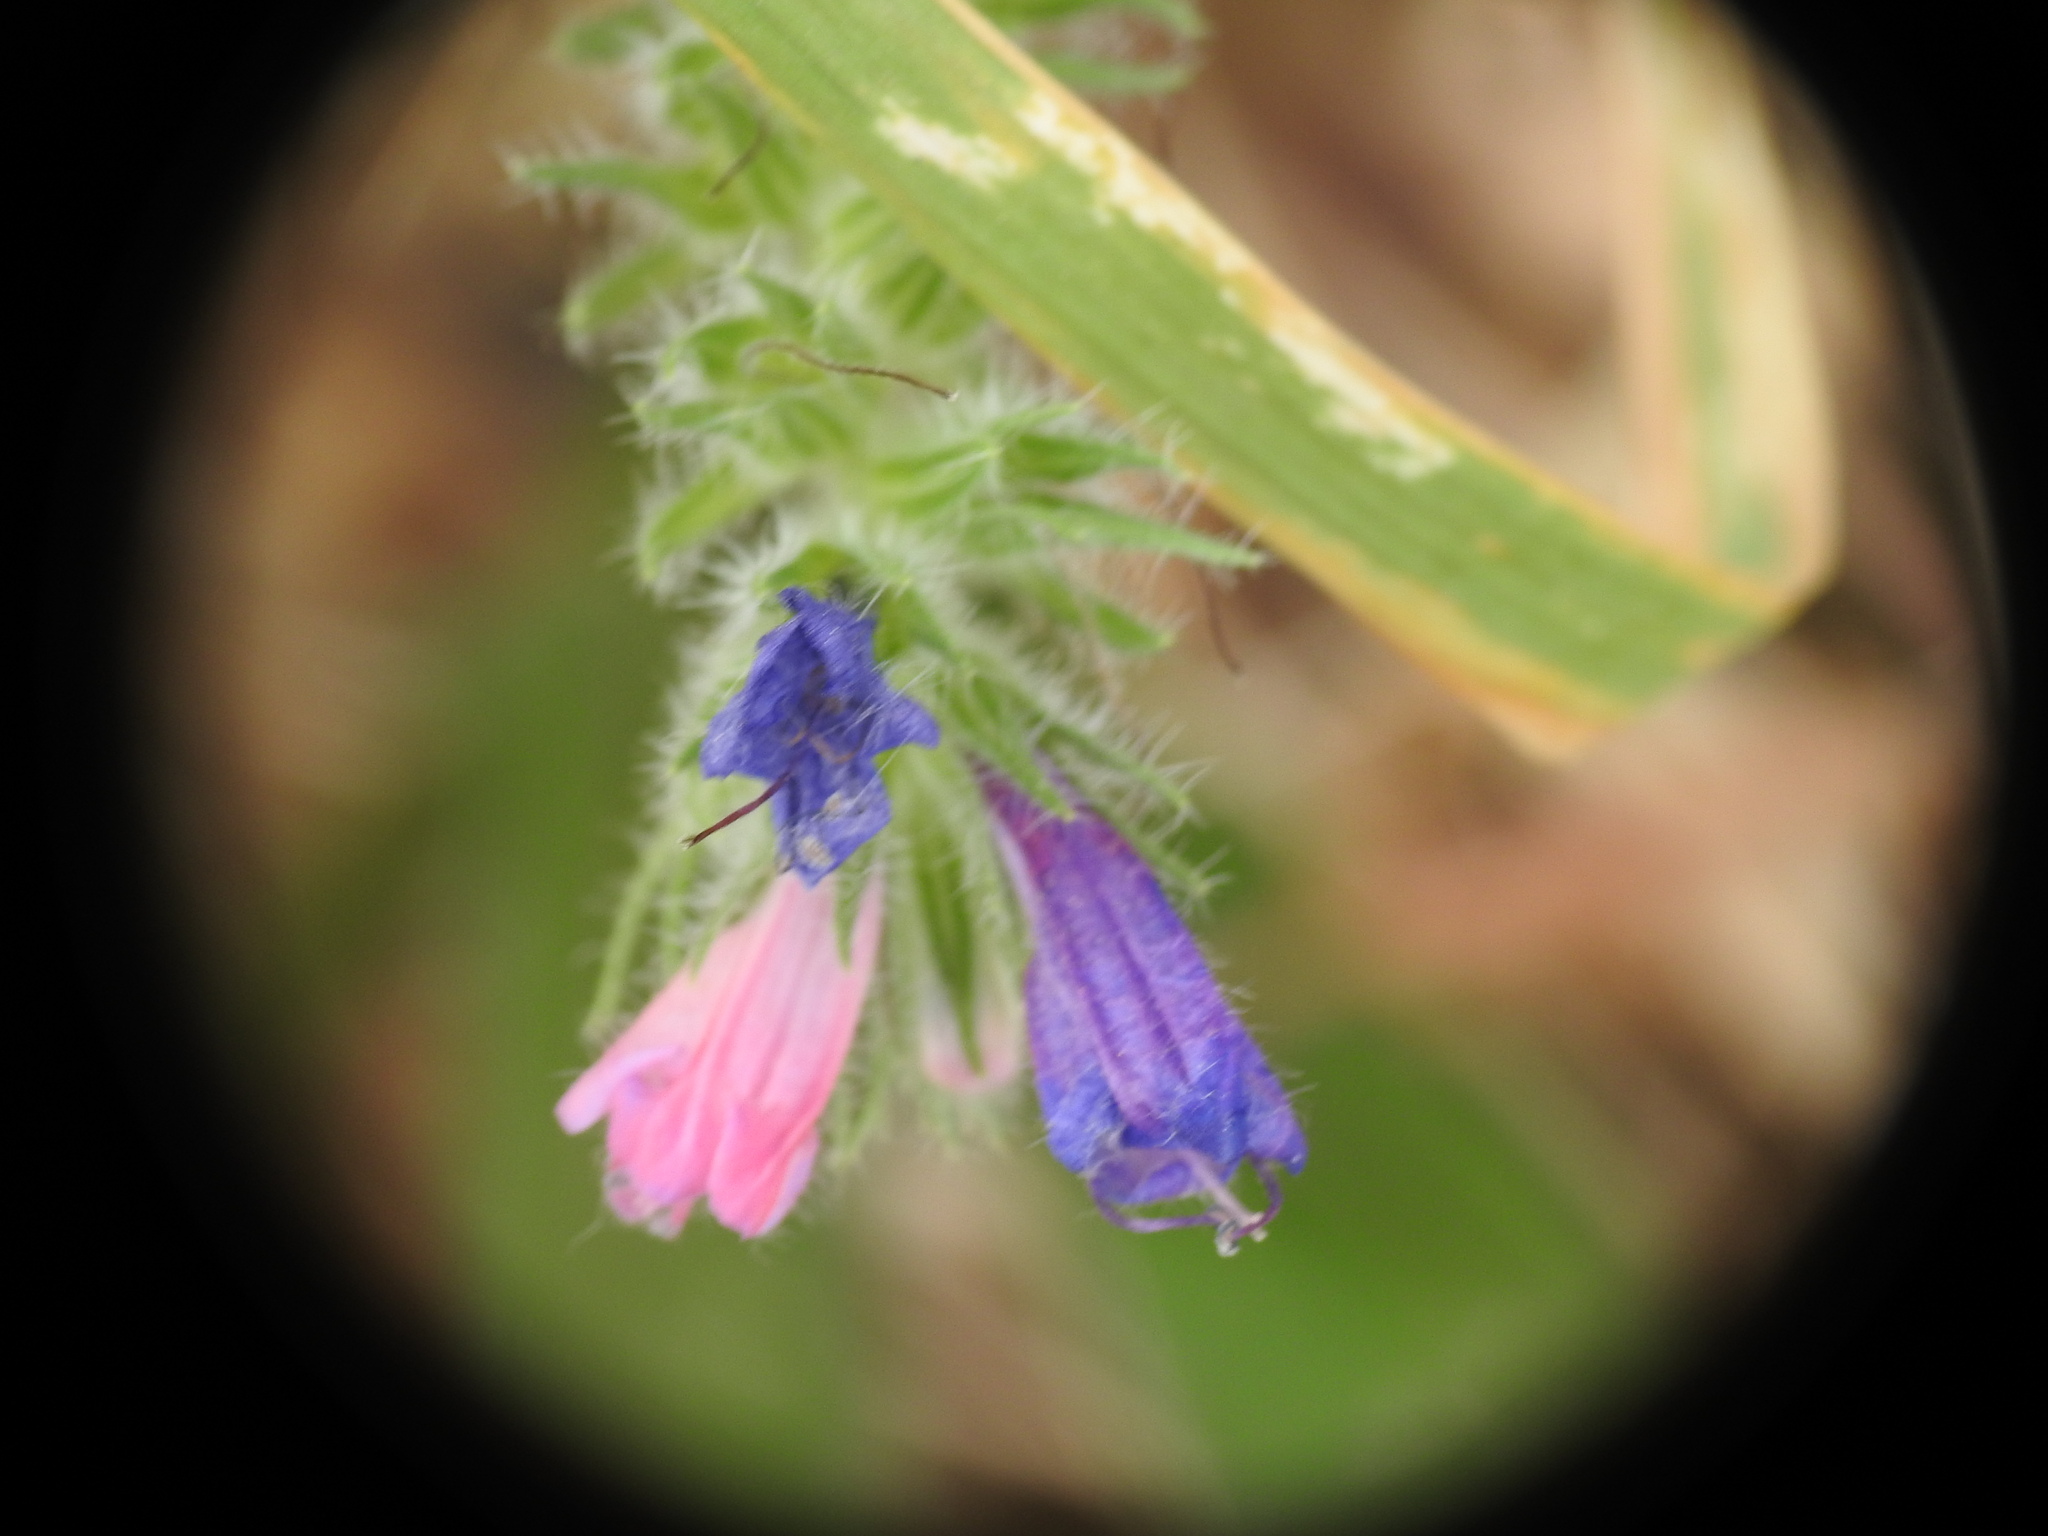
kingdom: Plantae
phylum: Tracheophyta
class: Magnoliopsida
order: Boraginales
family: Boraginaceae
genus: Echium
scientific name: Echium plantagineum
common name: Purple viper's-bugloss
